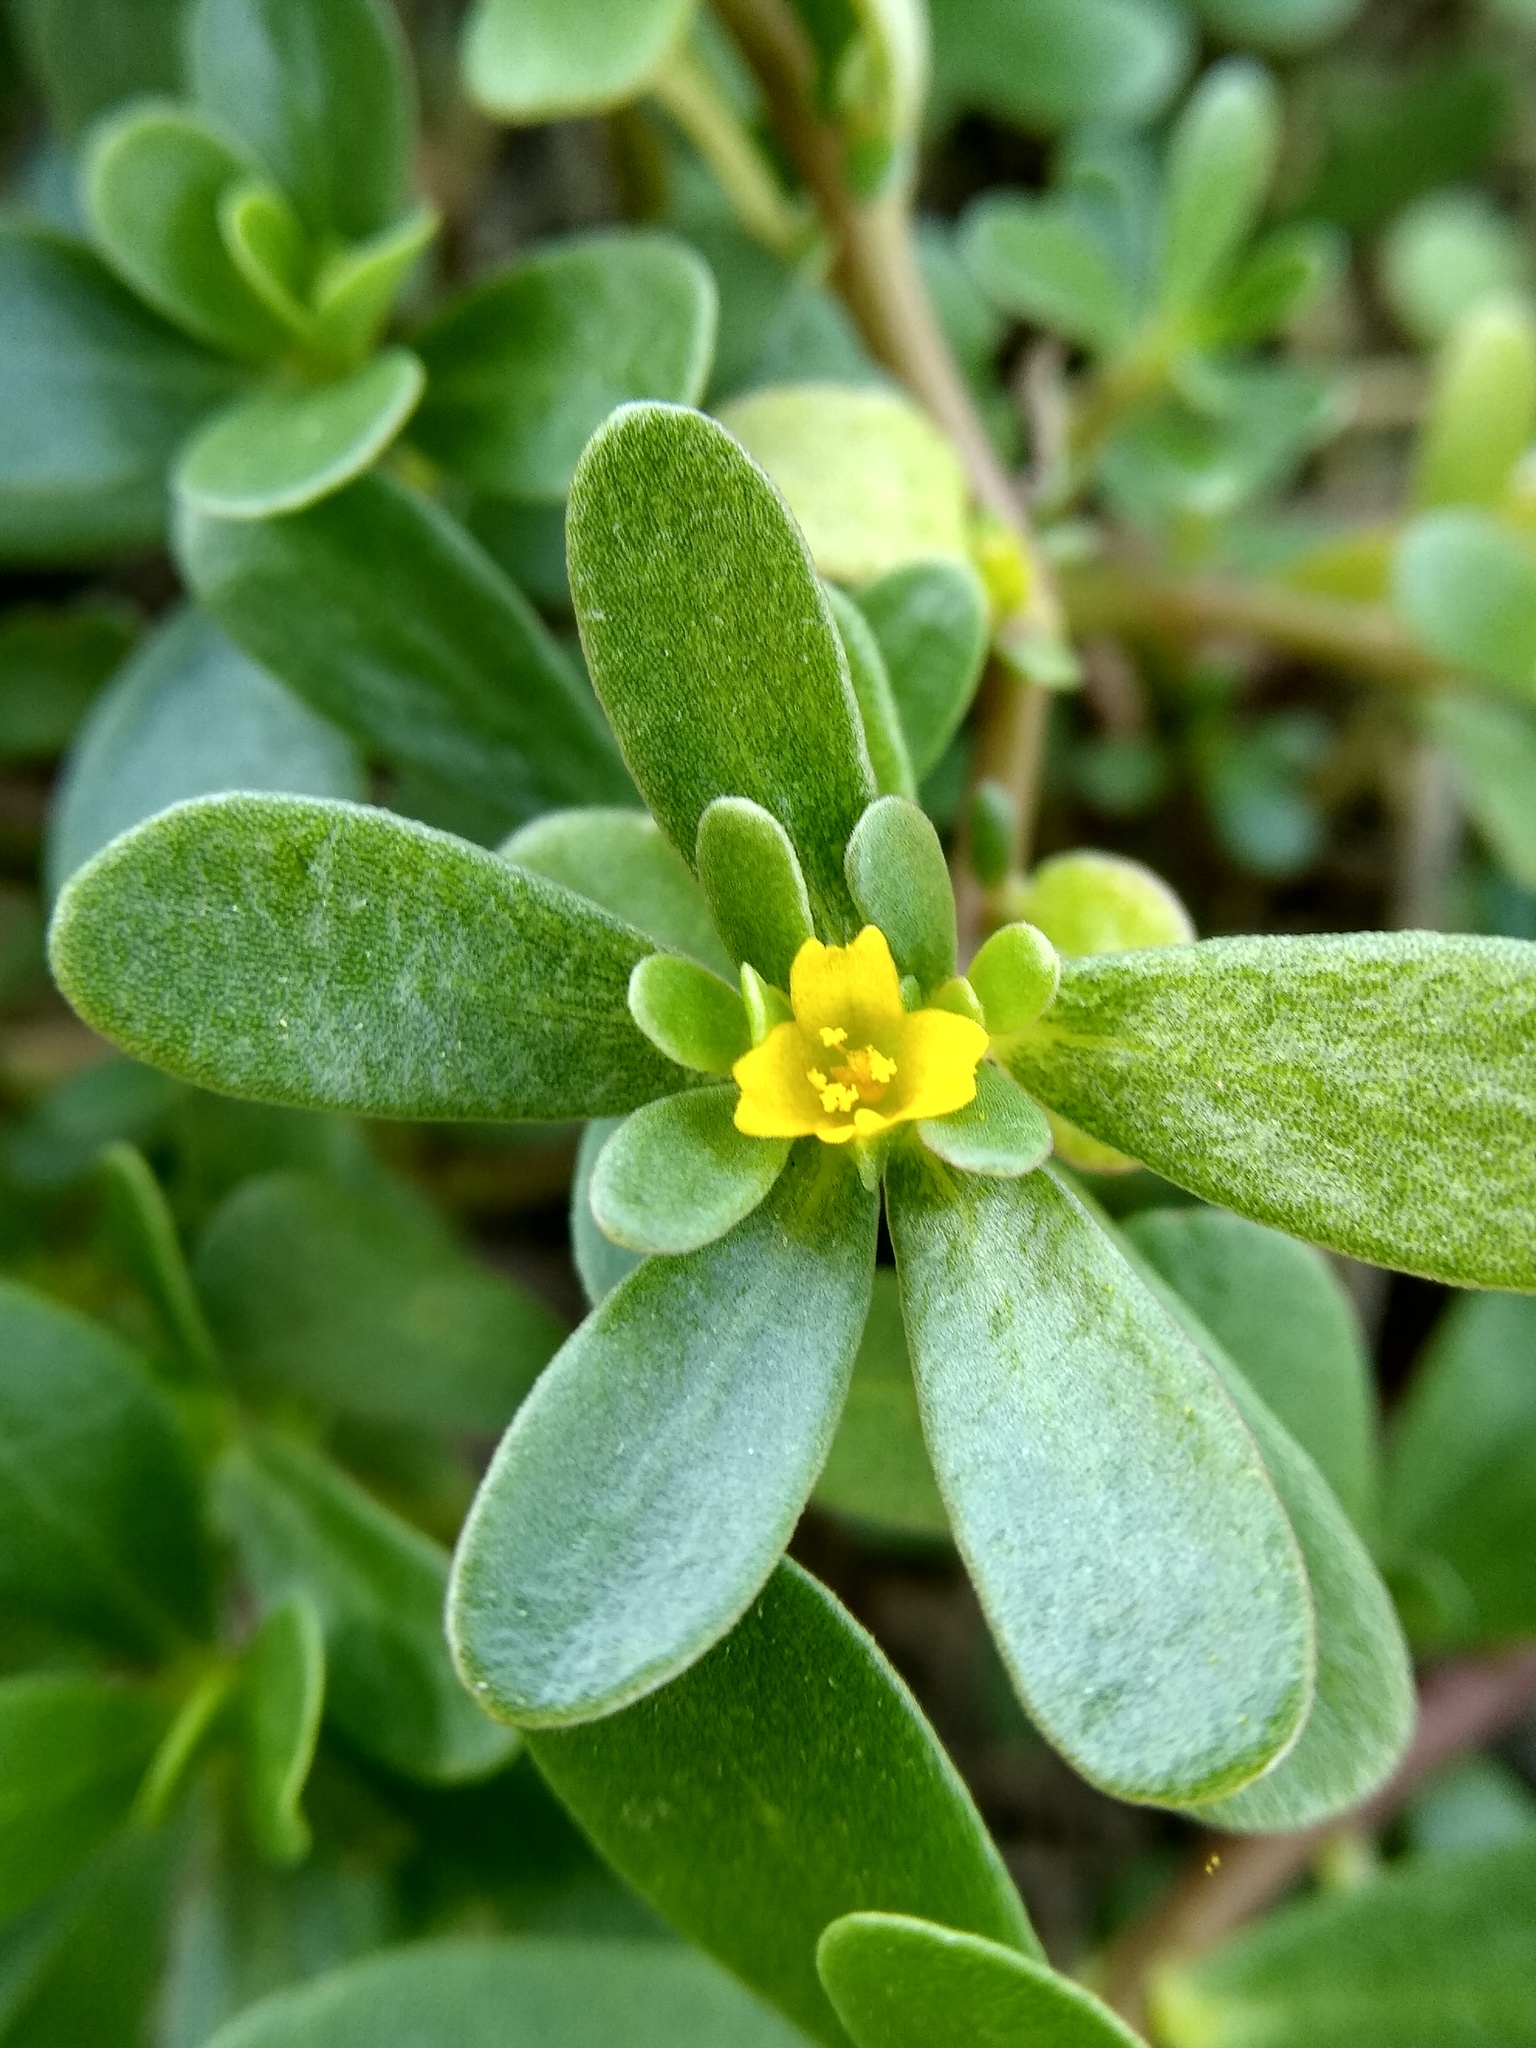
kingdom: Plantae
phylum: Tracheophyta
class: Magnoliopsida
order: Caryophyllales
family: Portulacaceae
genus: Portulaca
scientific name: Portulaca oleracea
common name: Common purslane
